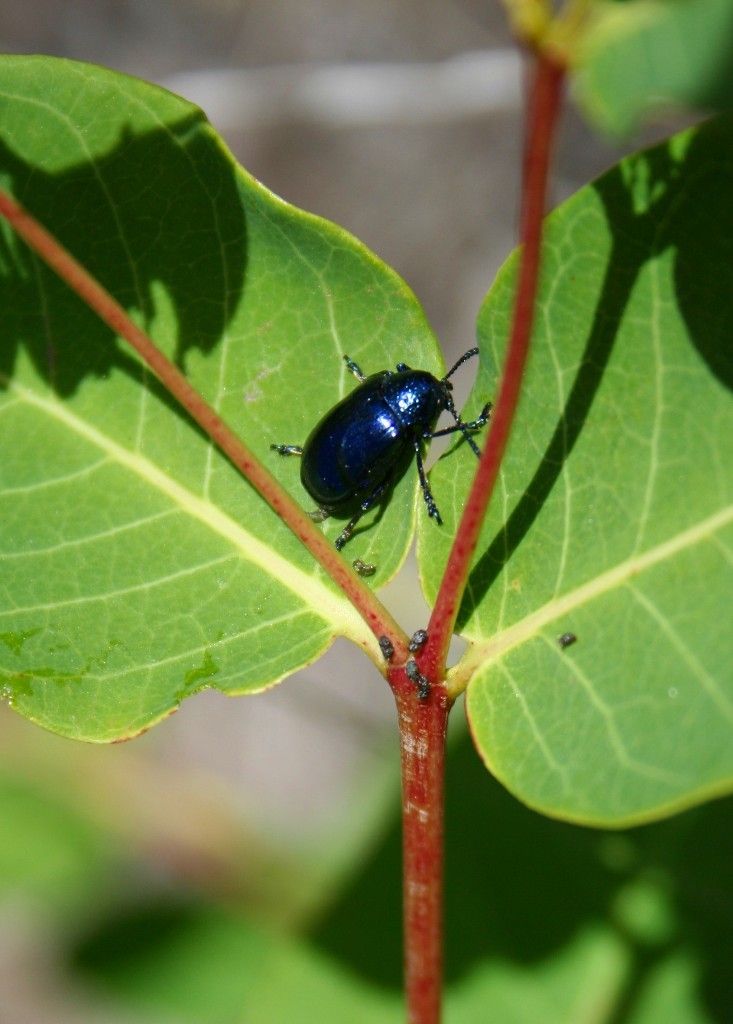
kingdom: Animalia
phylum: Arthropoda
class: Insecta
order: Coleoptera
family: Chrysomelidae
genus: Chrysochus
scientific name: Chrysochus cobaltinus
